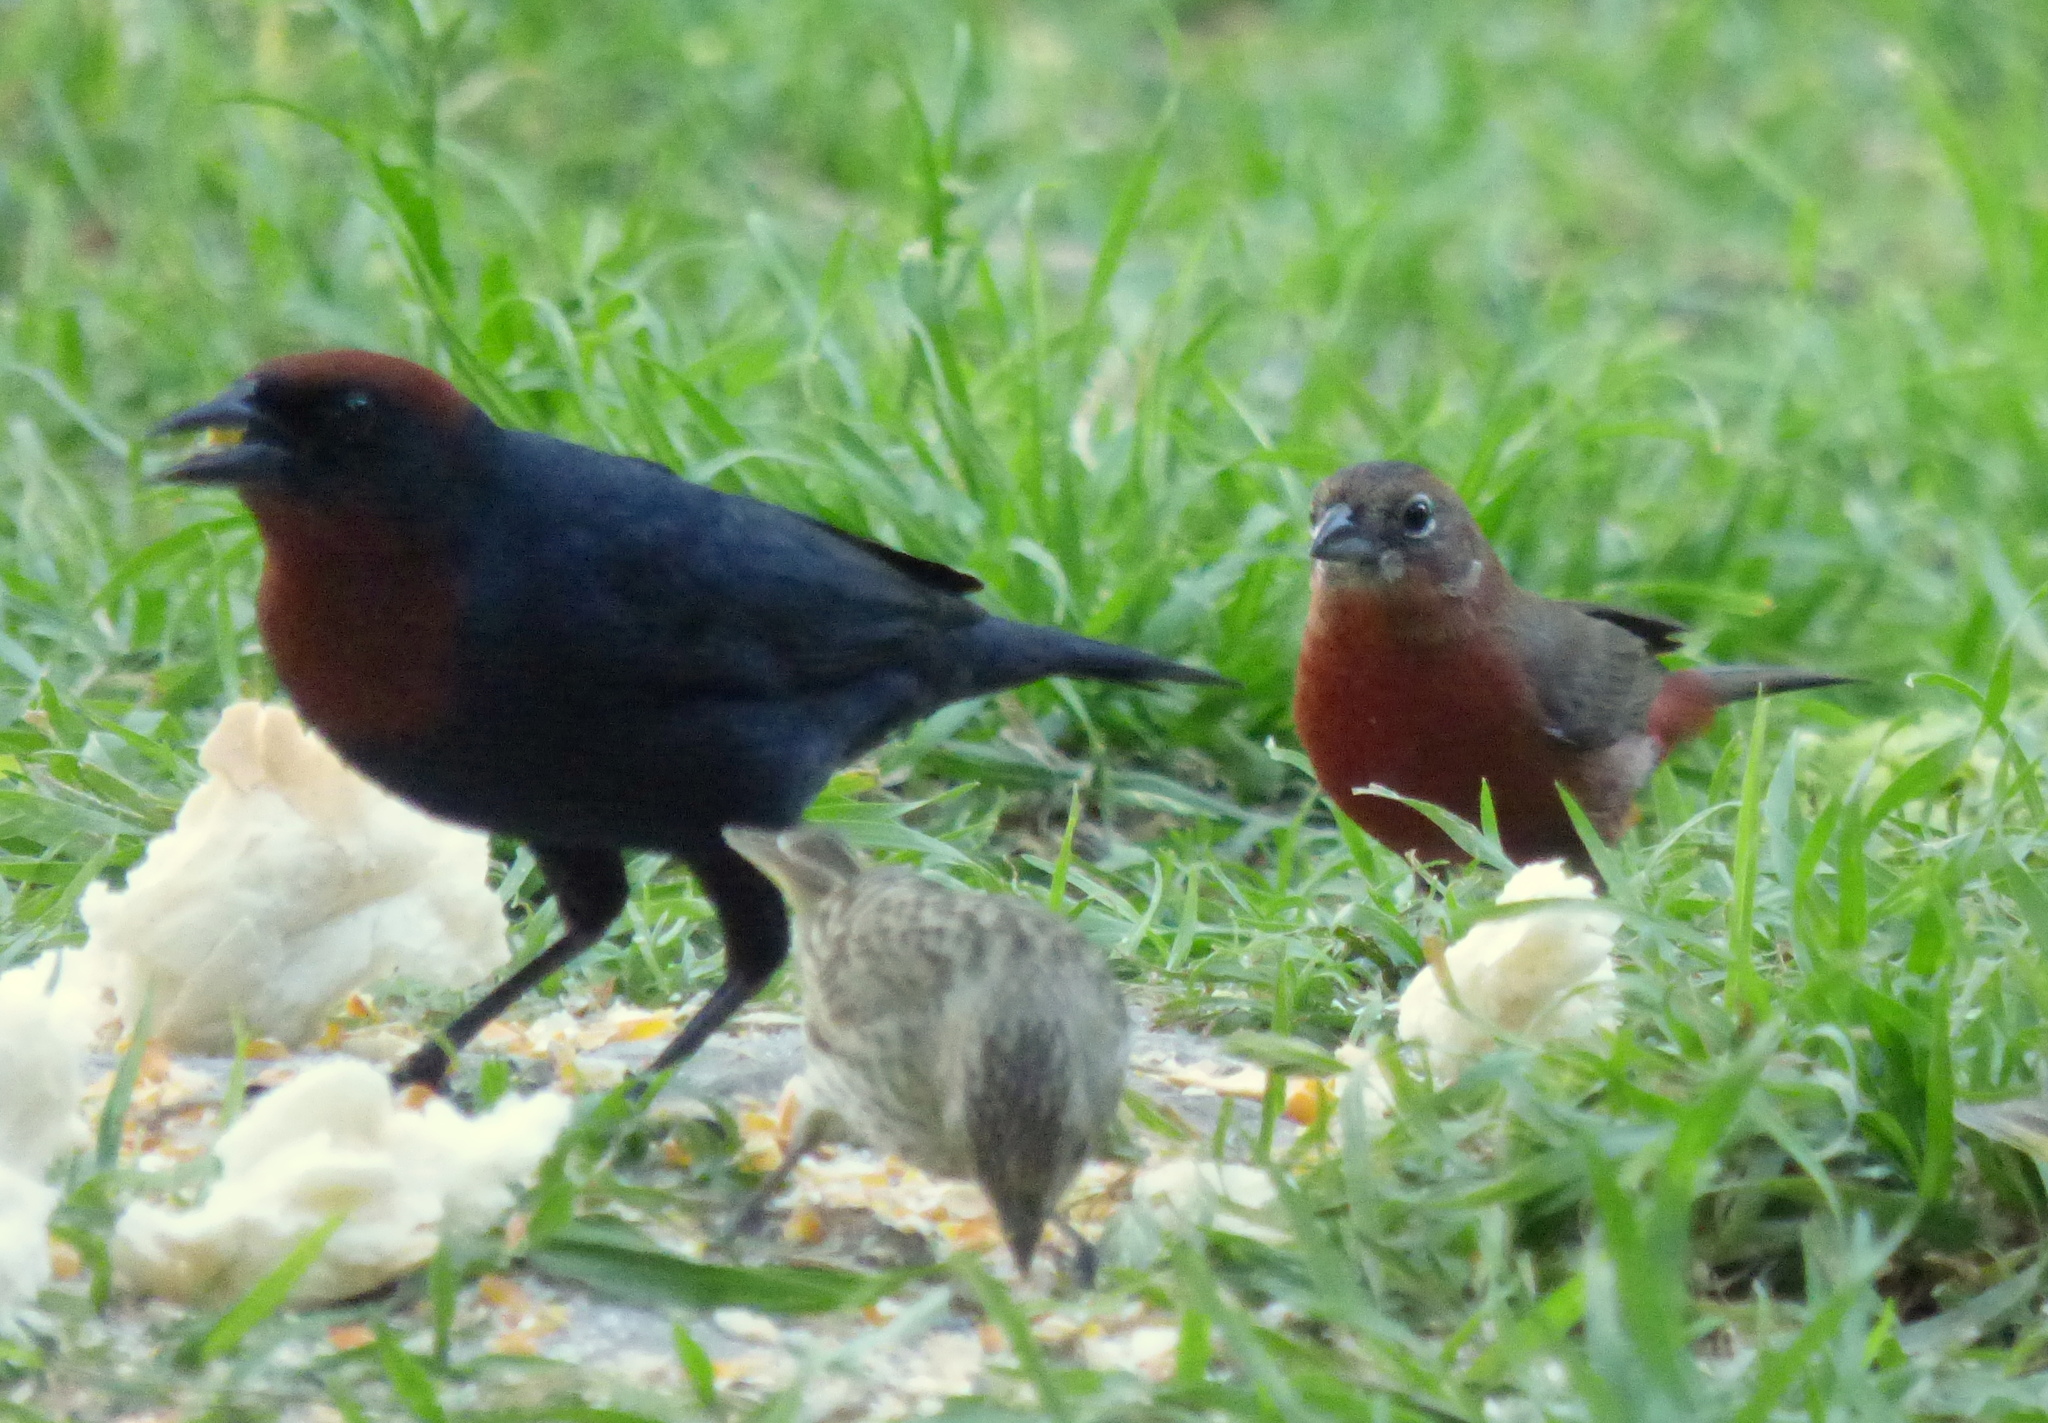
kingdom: Animalia
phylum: Chordata
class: Aves
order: Passeriformes
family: Thraupidae
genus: Coryphospingus
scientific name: Coryphospingus cucullatus
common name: Red pileated finch
